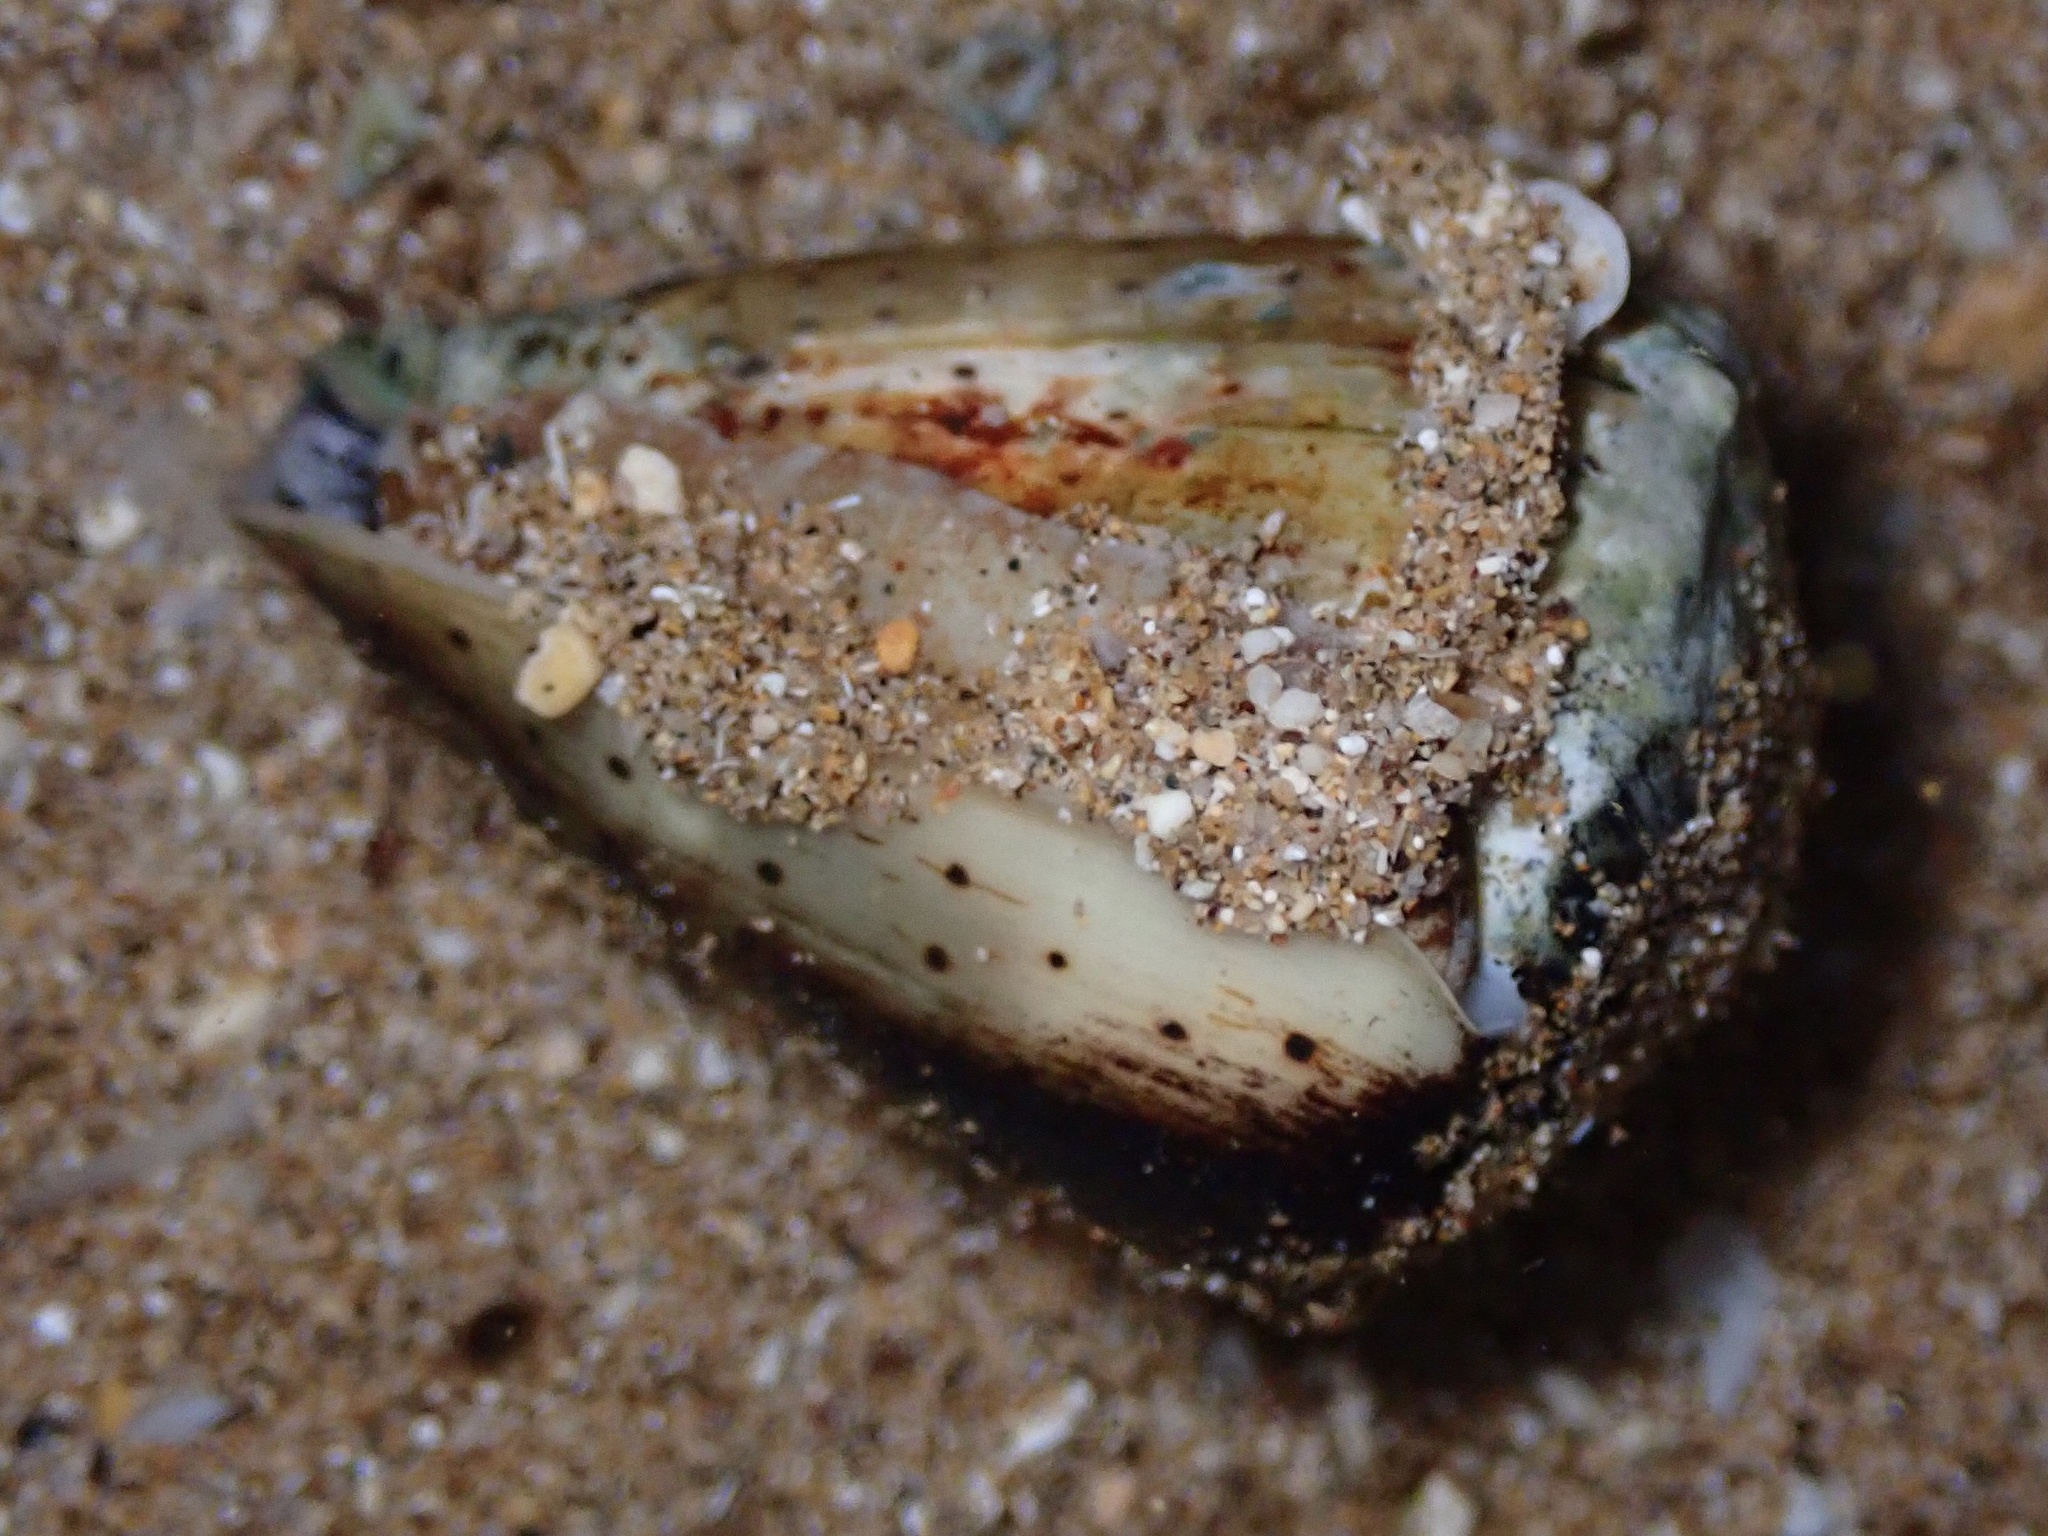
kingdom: Animalia
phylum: Mollusca
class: Gastropoda
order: Neogastropoda
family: Conidae
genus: Conus
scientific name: Conus abbreviatus
